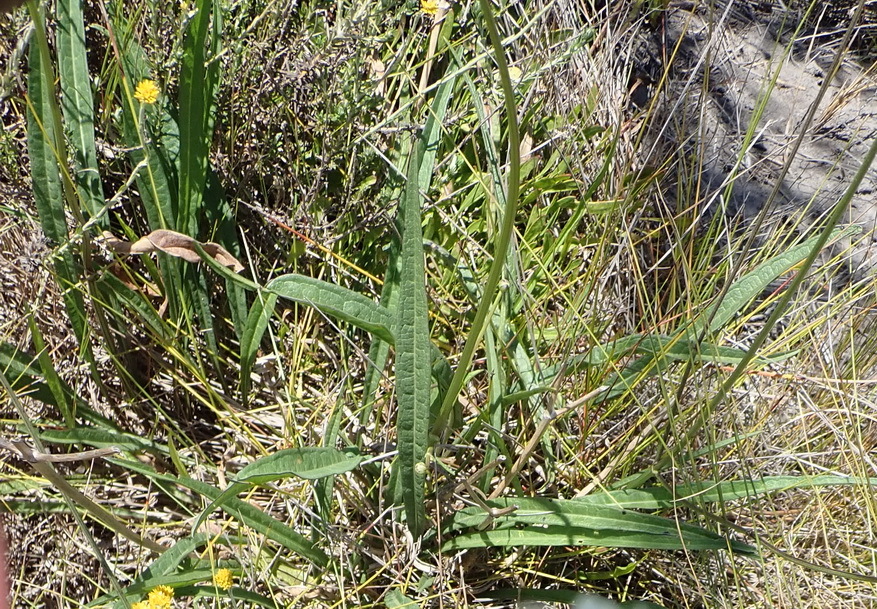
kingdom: Plantae
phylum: Tracheophyta
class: Magnoliopsida
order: Dipsacales
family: Caprifoliaceae
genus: Cephalaria
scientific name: Cephalaria humilis
